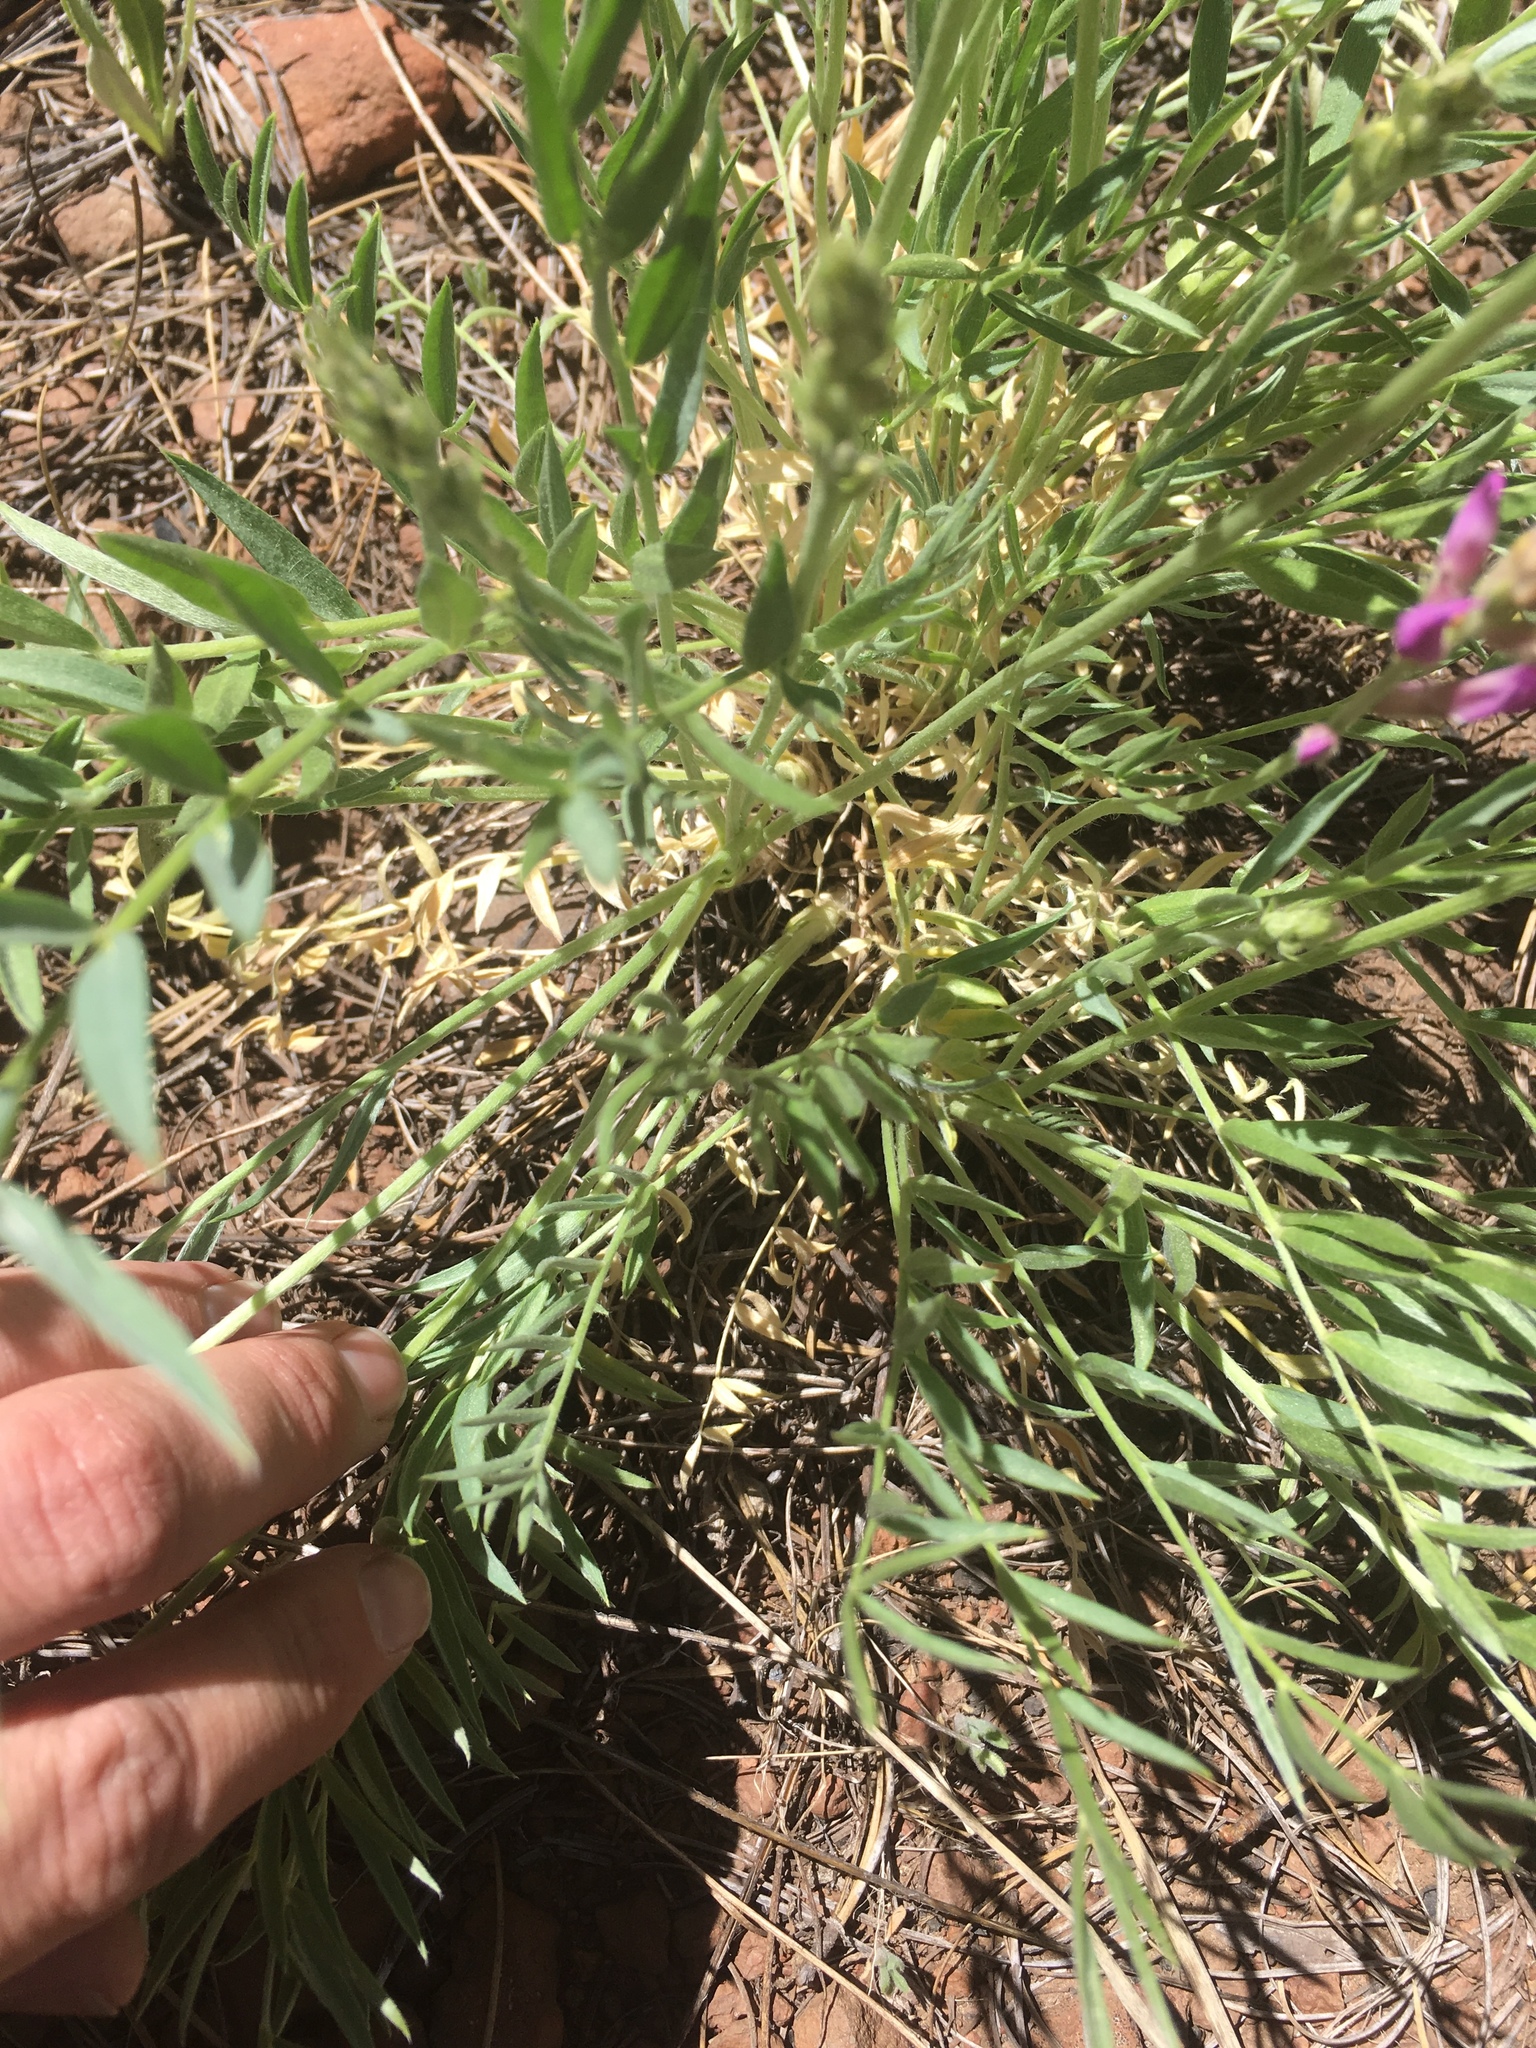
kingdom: Plantae
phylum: Tracheophyta
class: Magnoliopsida
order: Fabales
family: Fabaceae
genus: Oxytropis
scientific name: Oxytropis lambertii
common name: Purple locoweed
